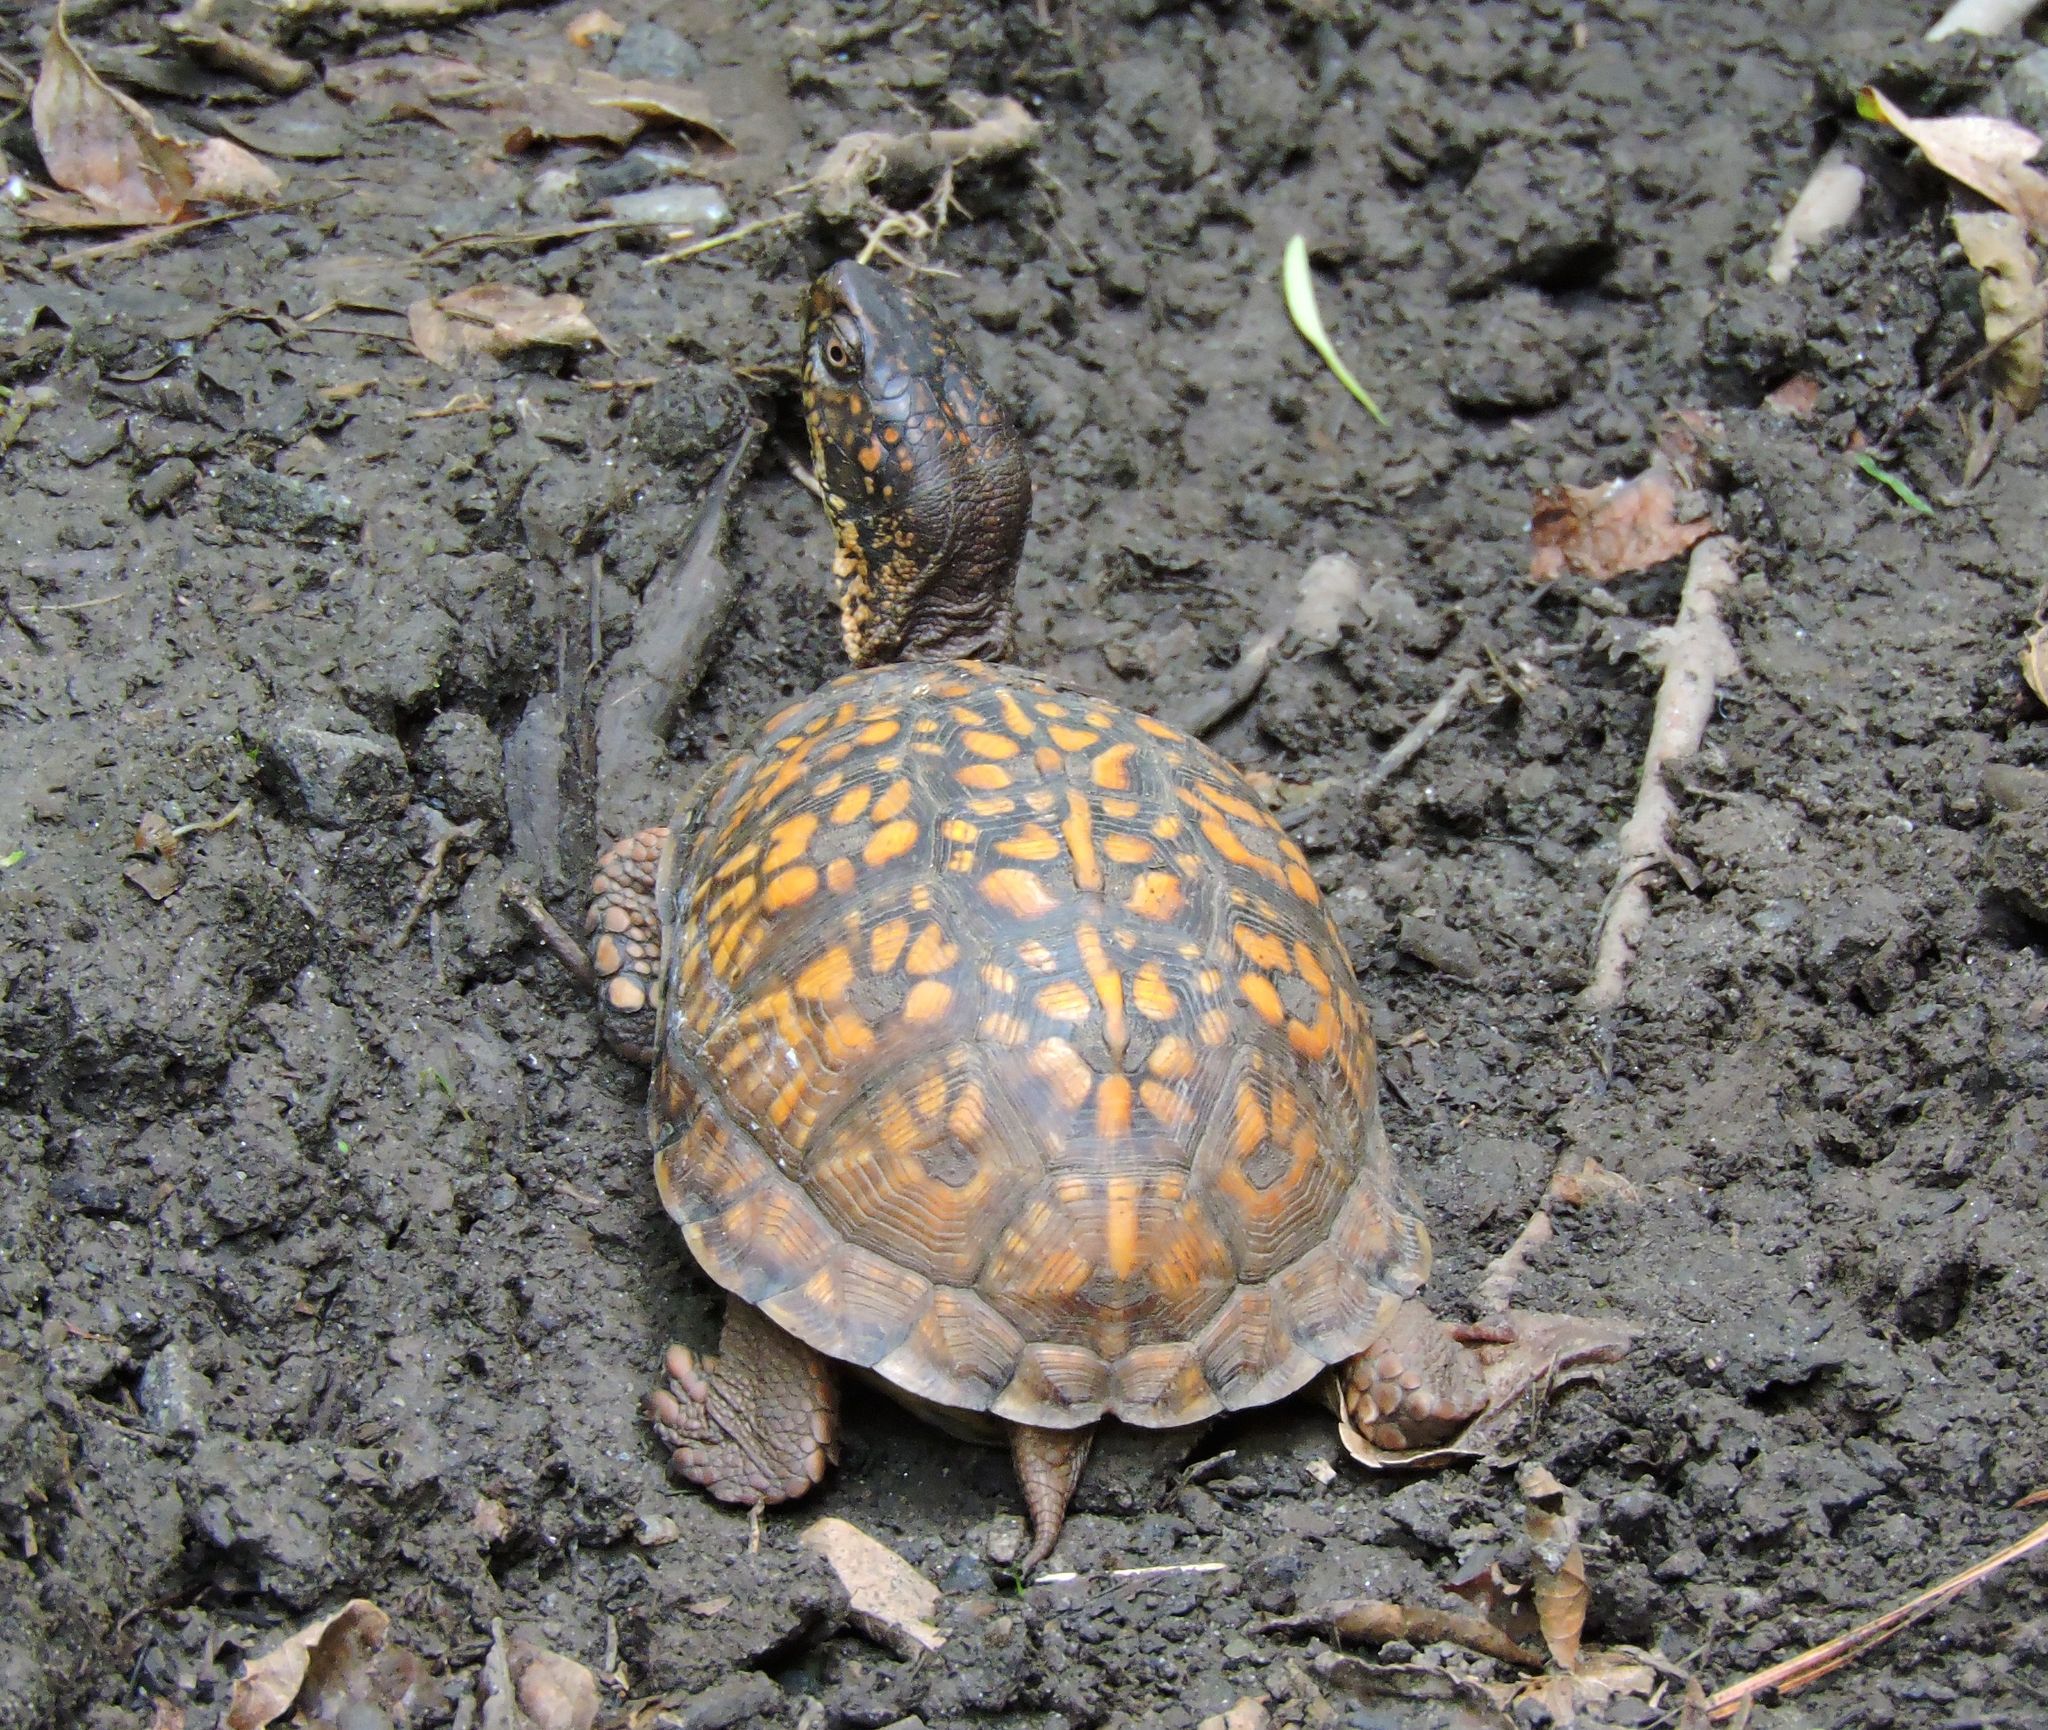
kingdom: Animalia
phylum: Chordata
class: Testudines
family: Emydidae
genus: Terrapene
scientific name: Terrapene carolina
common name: Common box turtle
